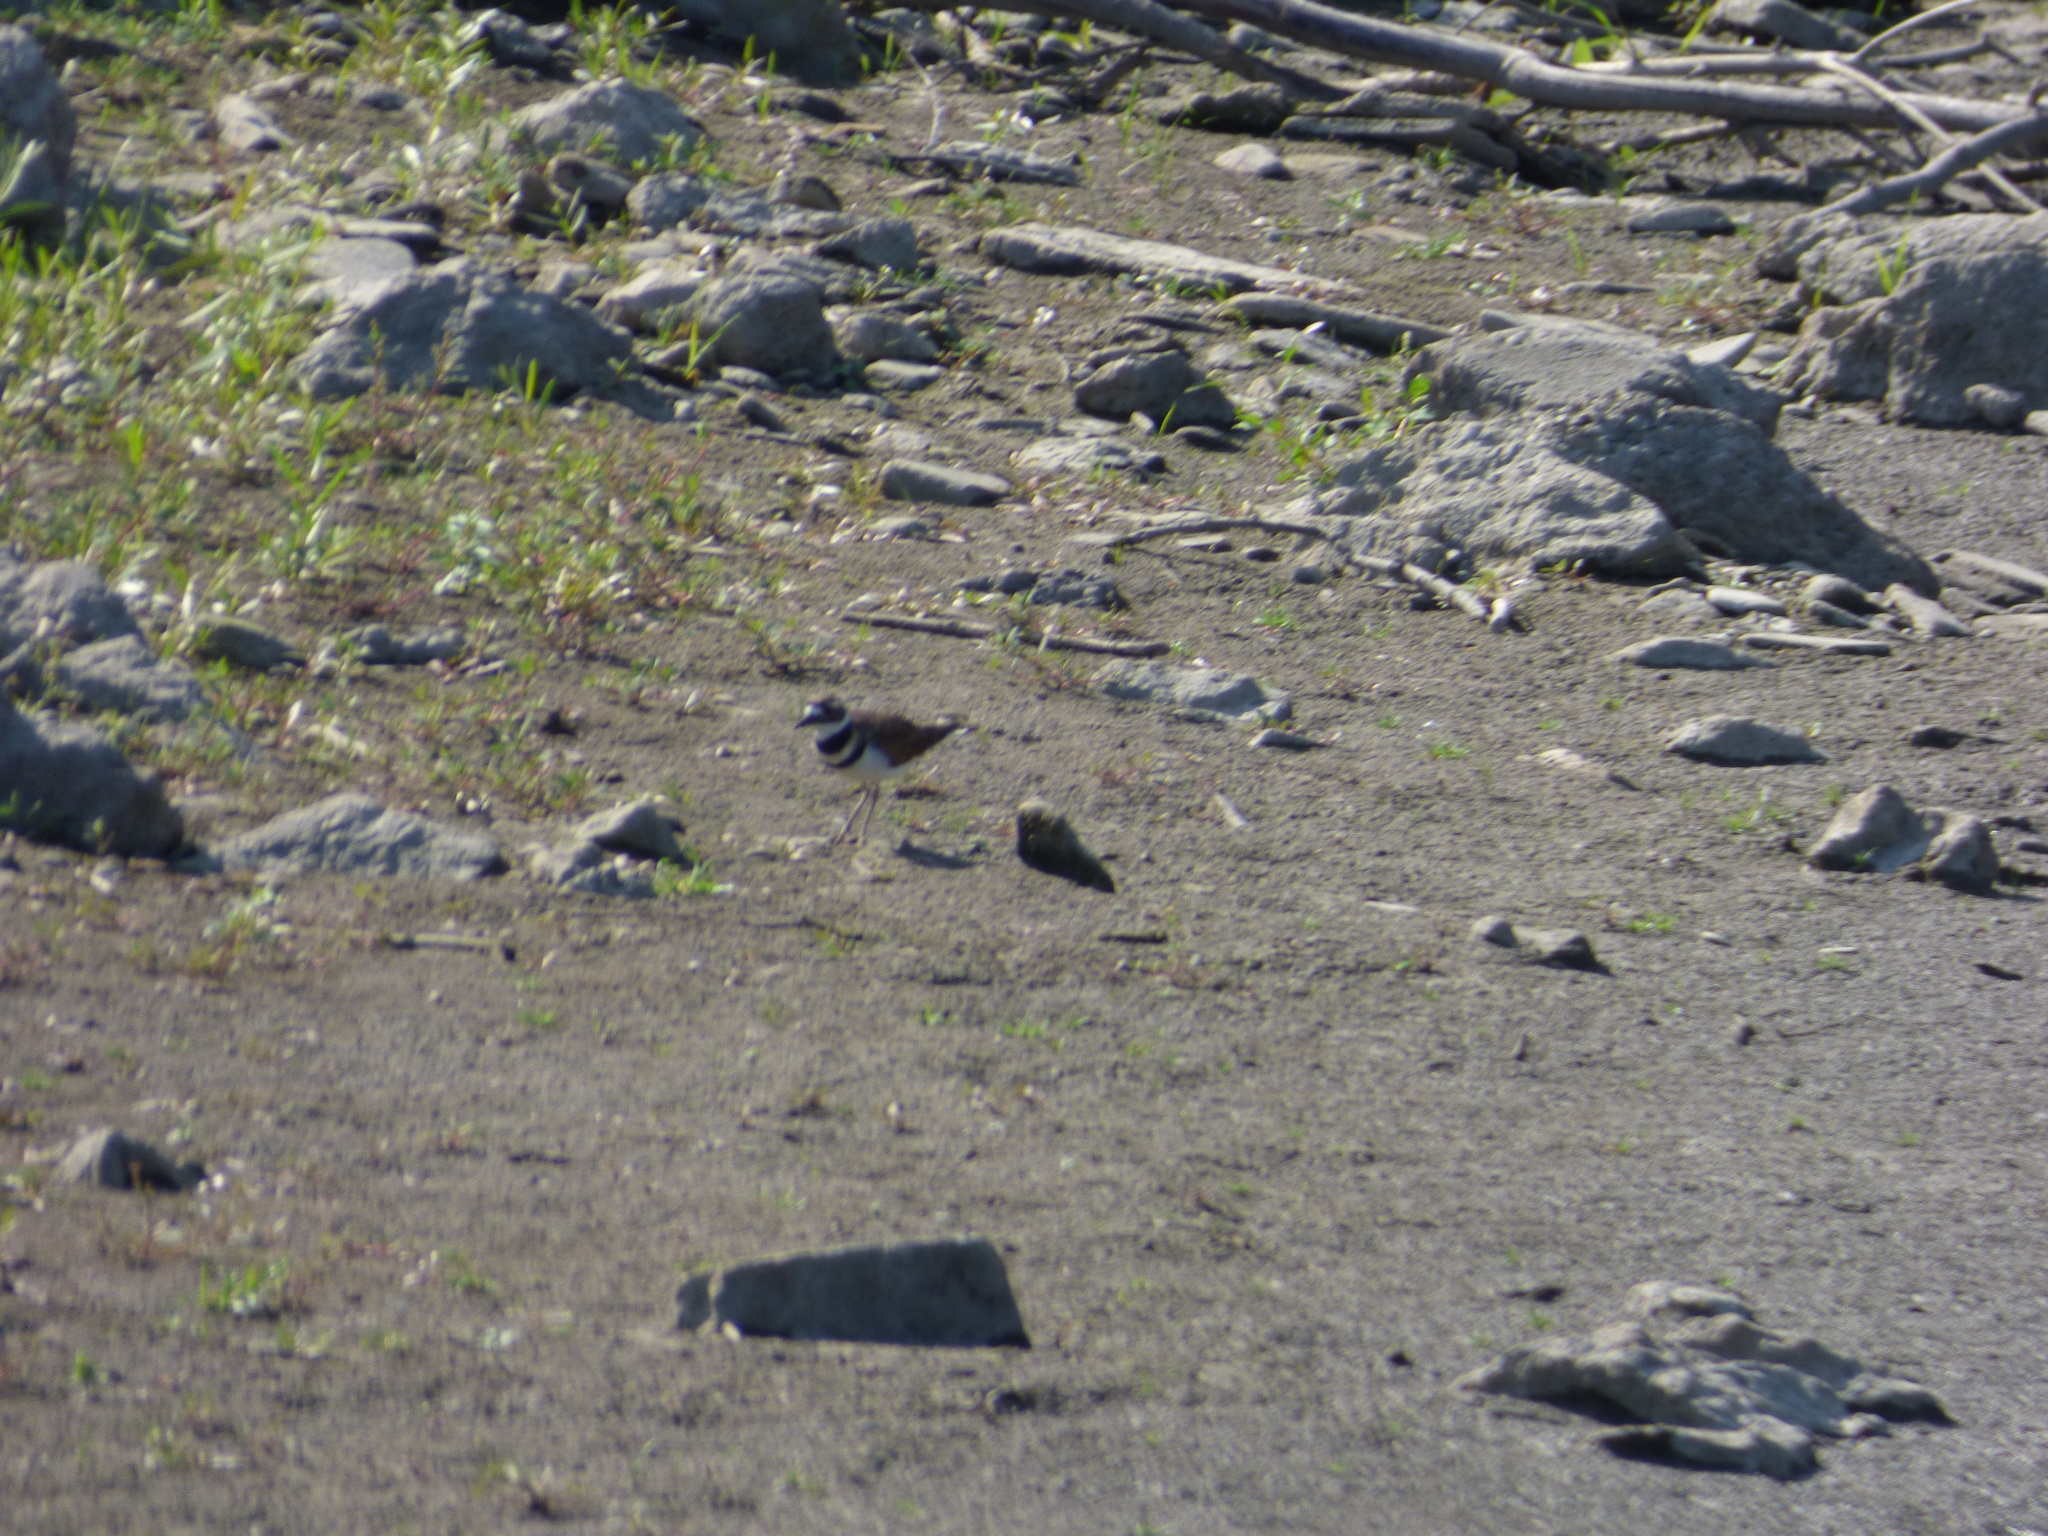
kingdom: Animalia
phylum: Chordata
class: Aves
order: Charadriiformes
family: Charadriidae
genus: Charadrius
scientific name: Charadrius vociferus
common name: Killdeer
